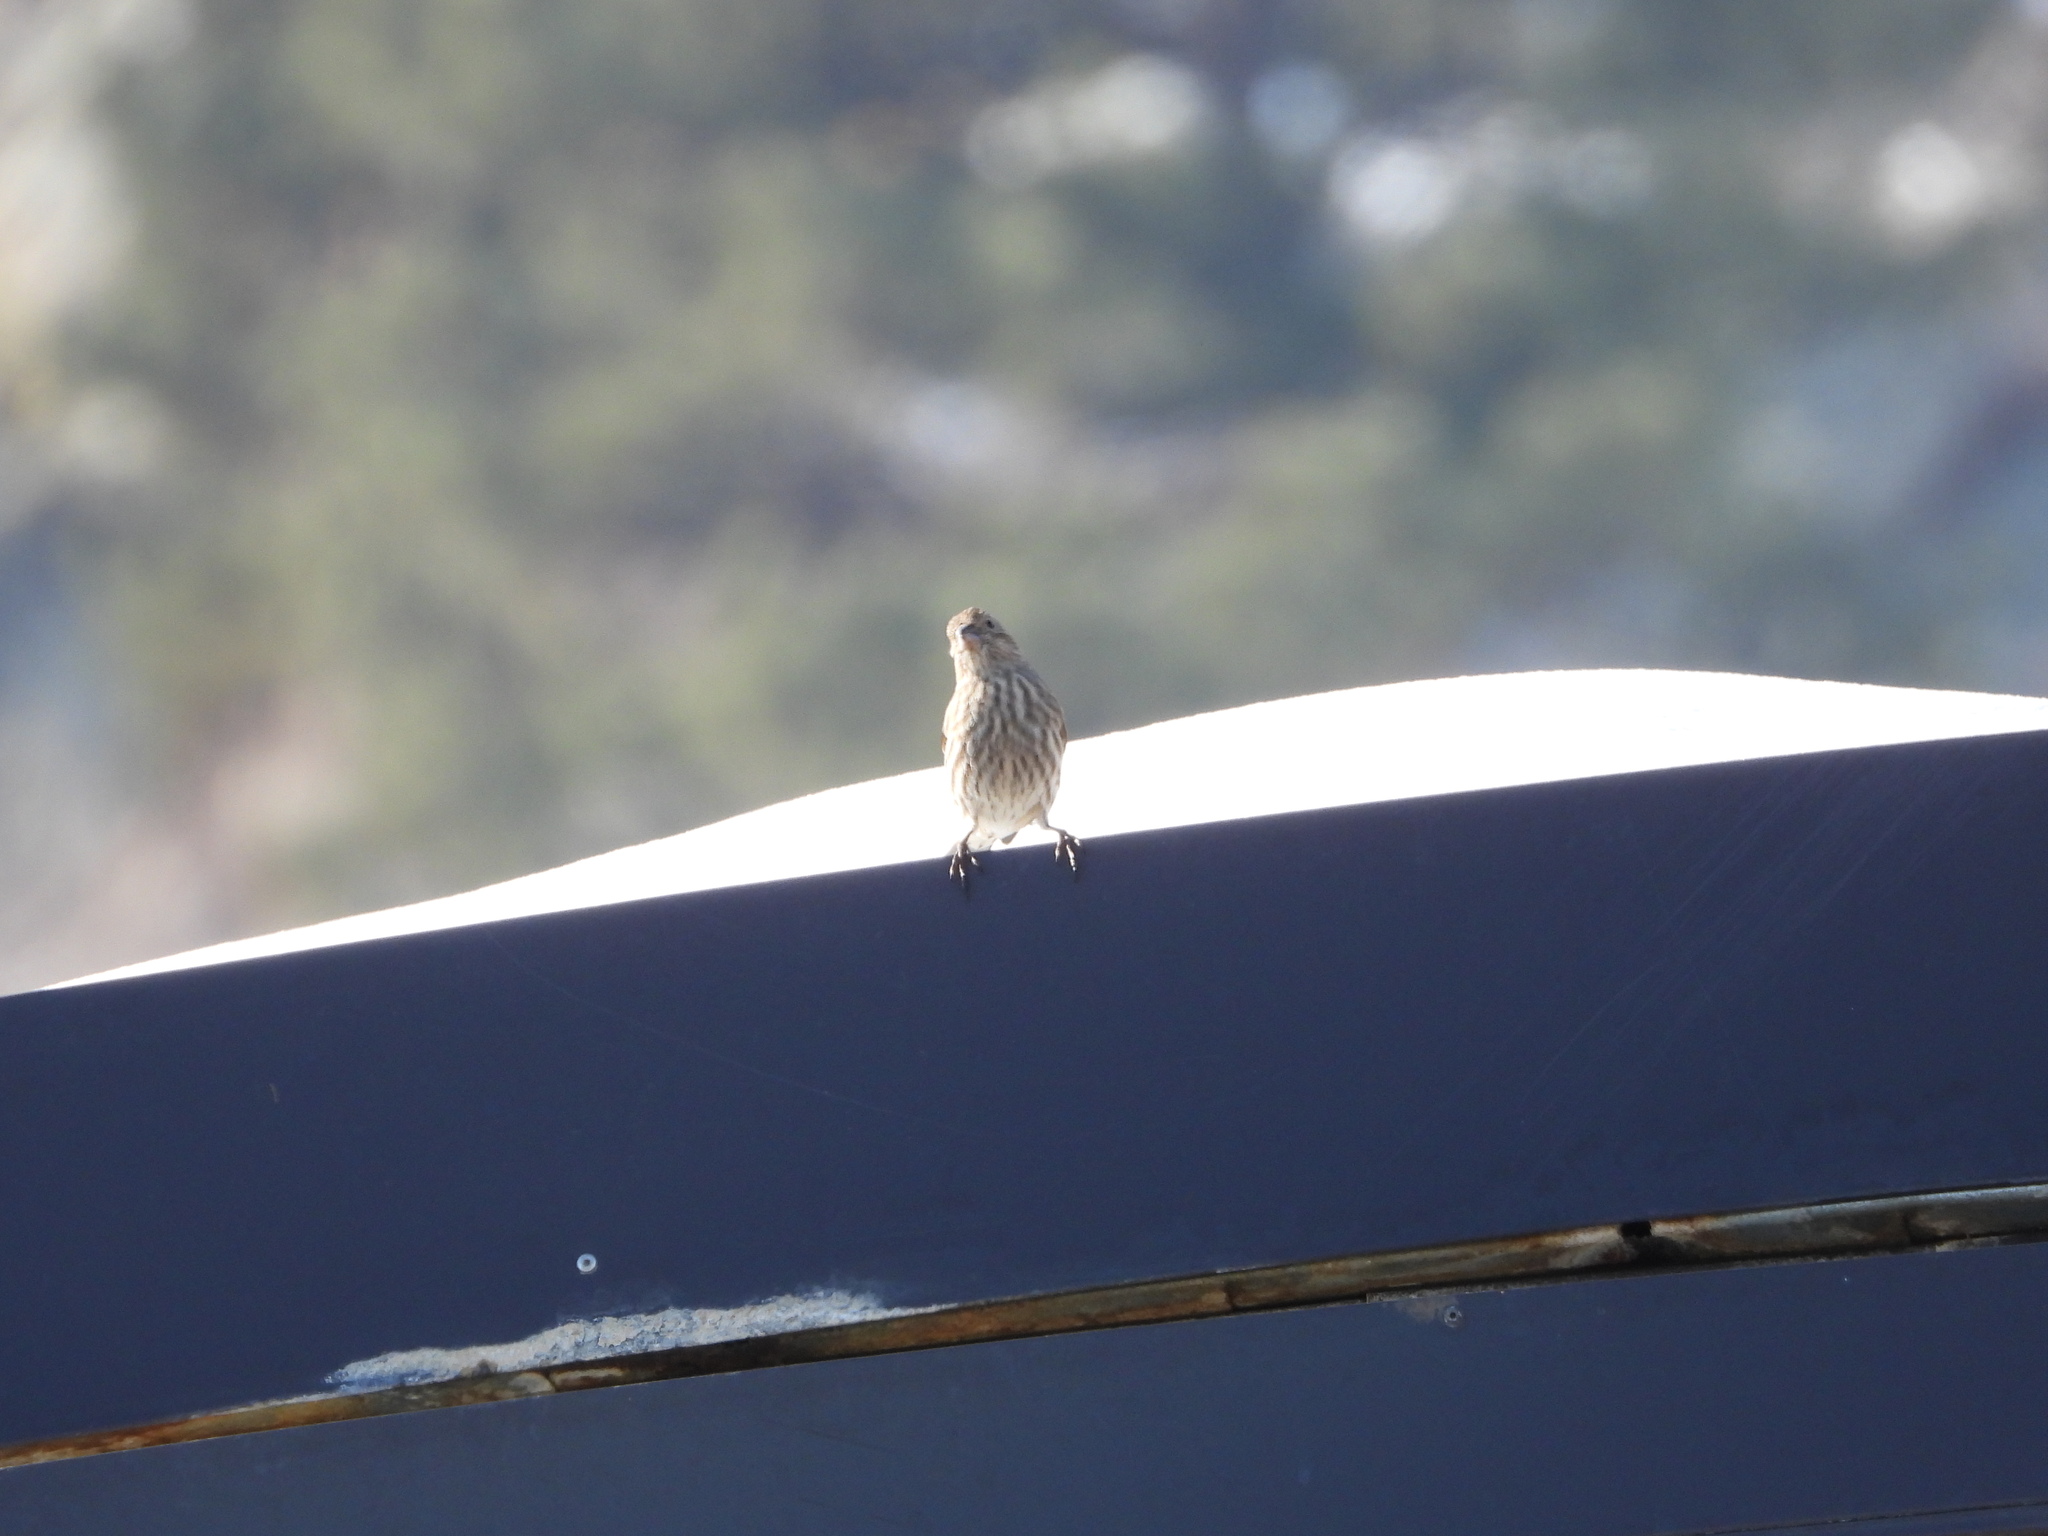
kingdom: Animalia
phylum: Chordata
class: Aves
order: Passeriformes
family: Fringillidae
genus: Haemorhous
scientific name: Haemorhous mexicanus
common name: House finch
